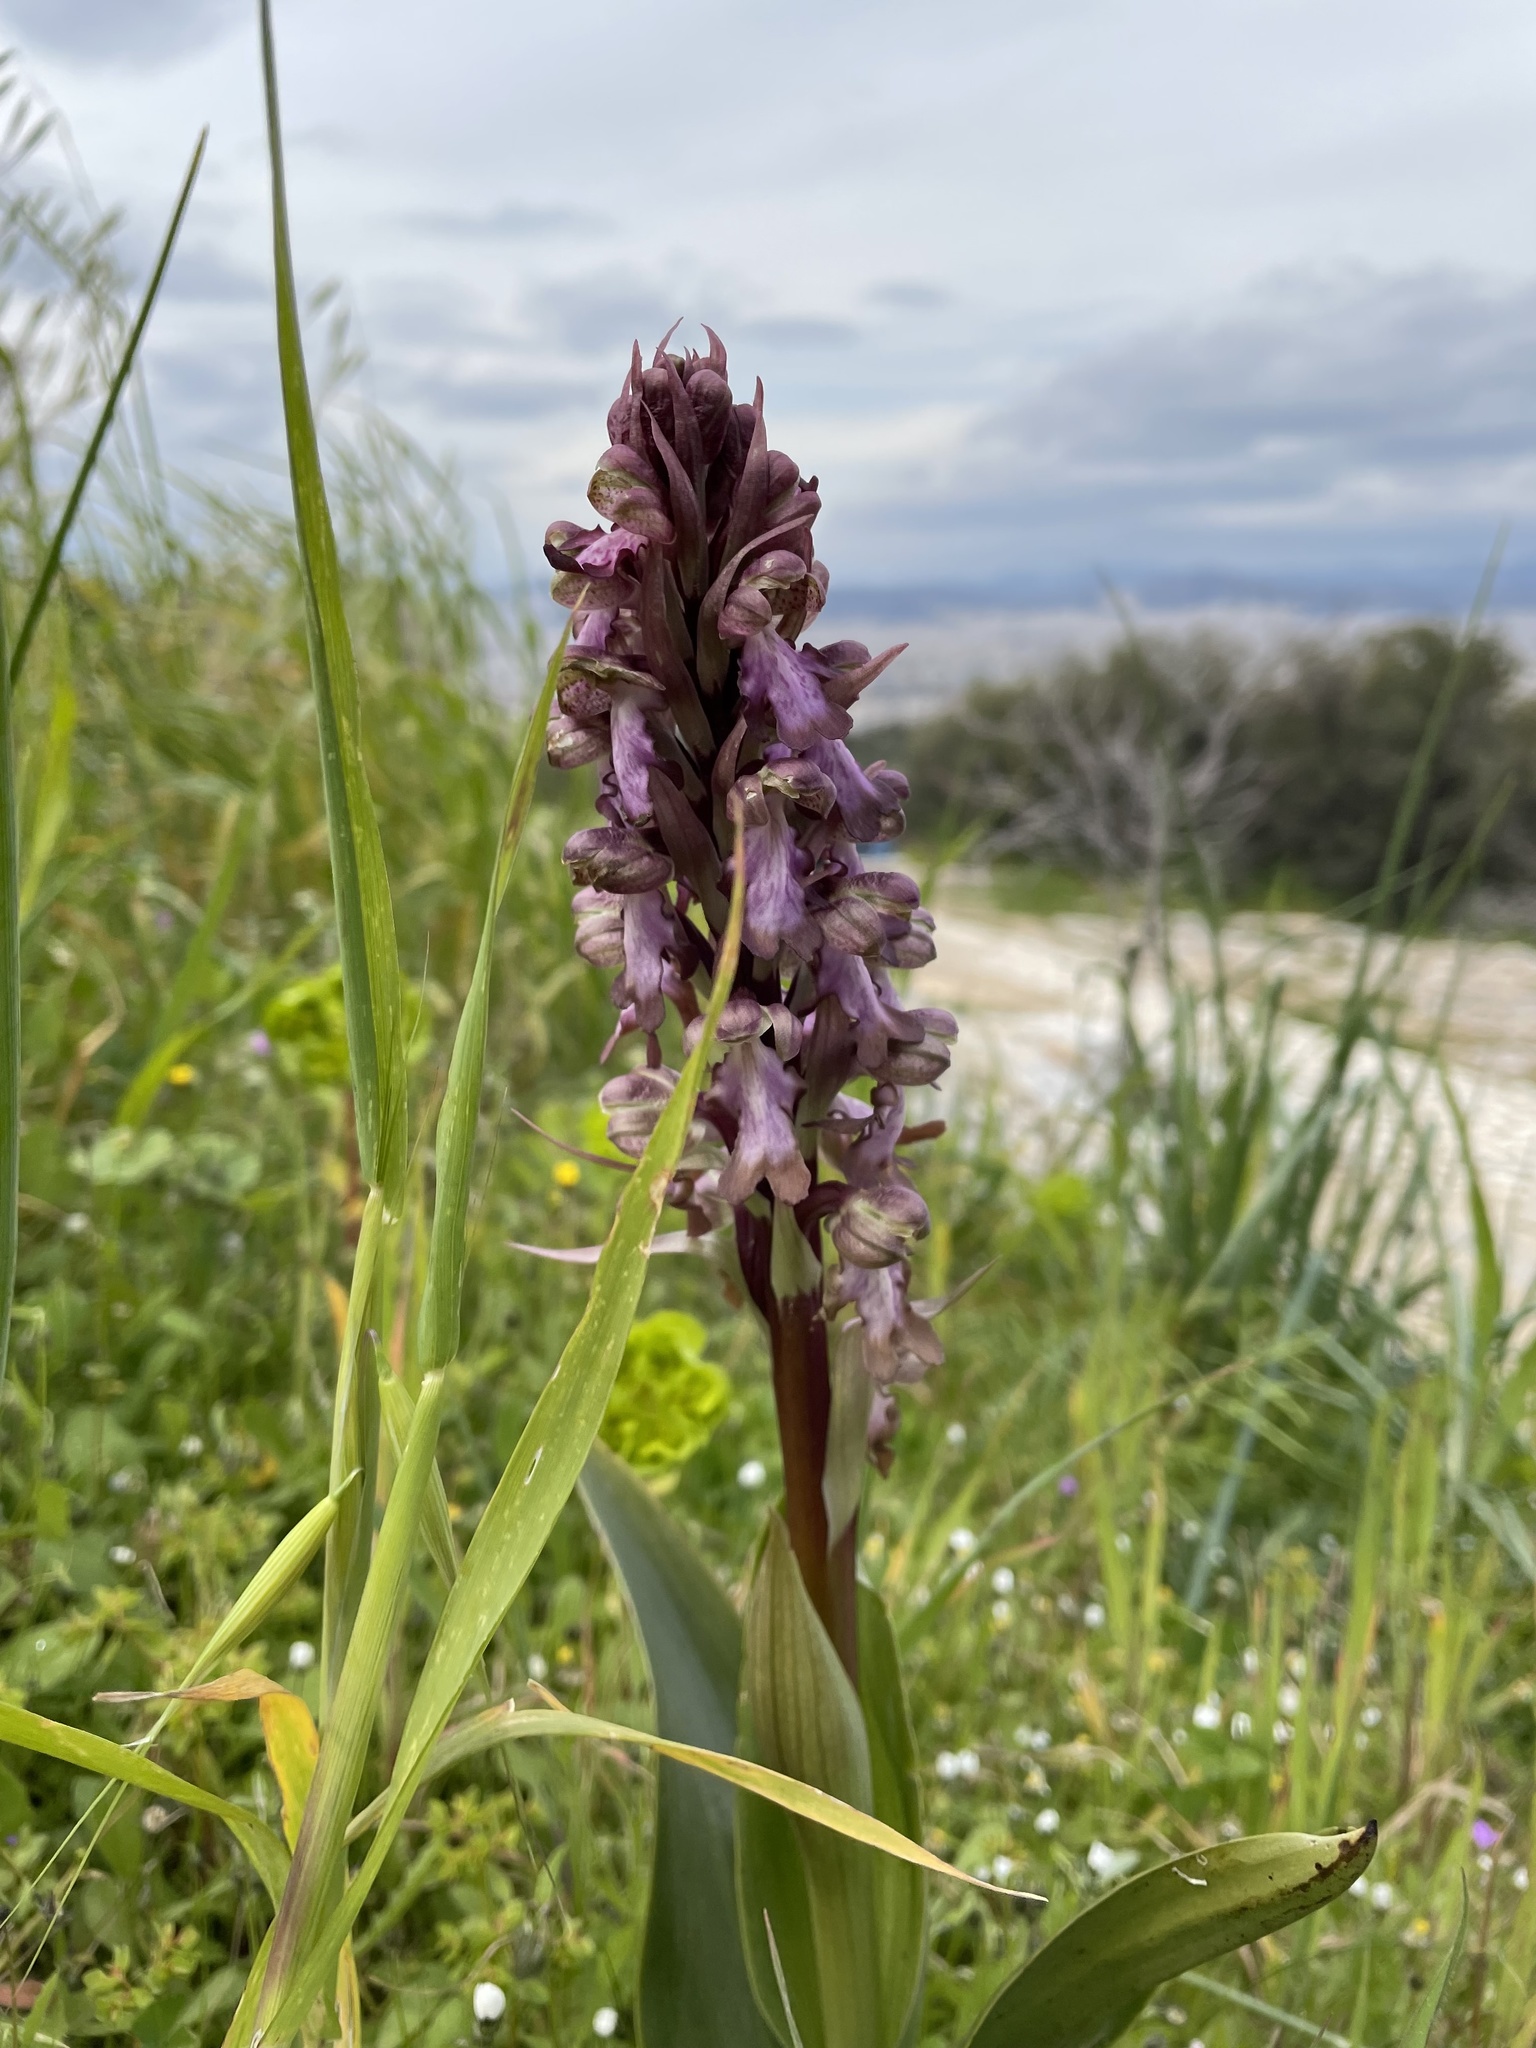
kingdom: Plantae
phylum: Tracheophyta
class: Liliopsida
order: Asparagales
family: Orchidaceae
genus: Himantoglossum
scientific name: Himantoglossum robertianum
